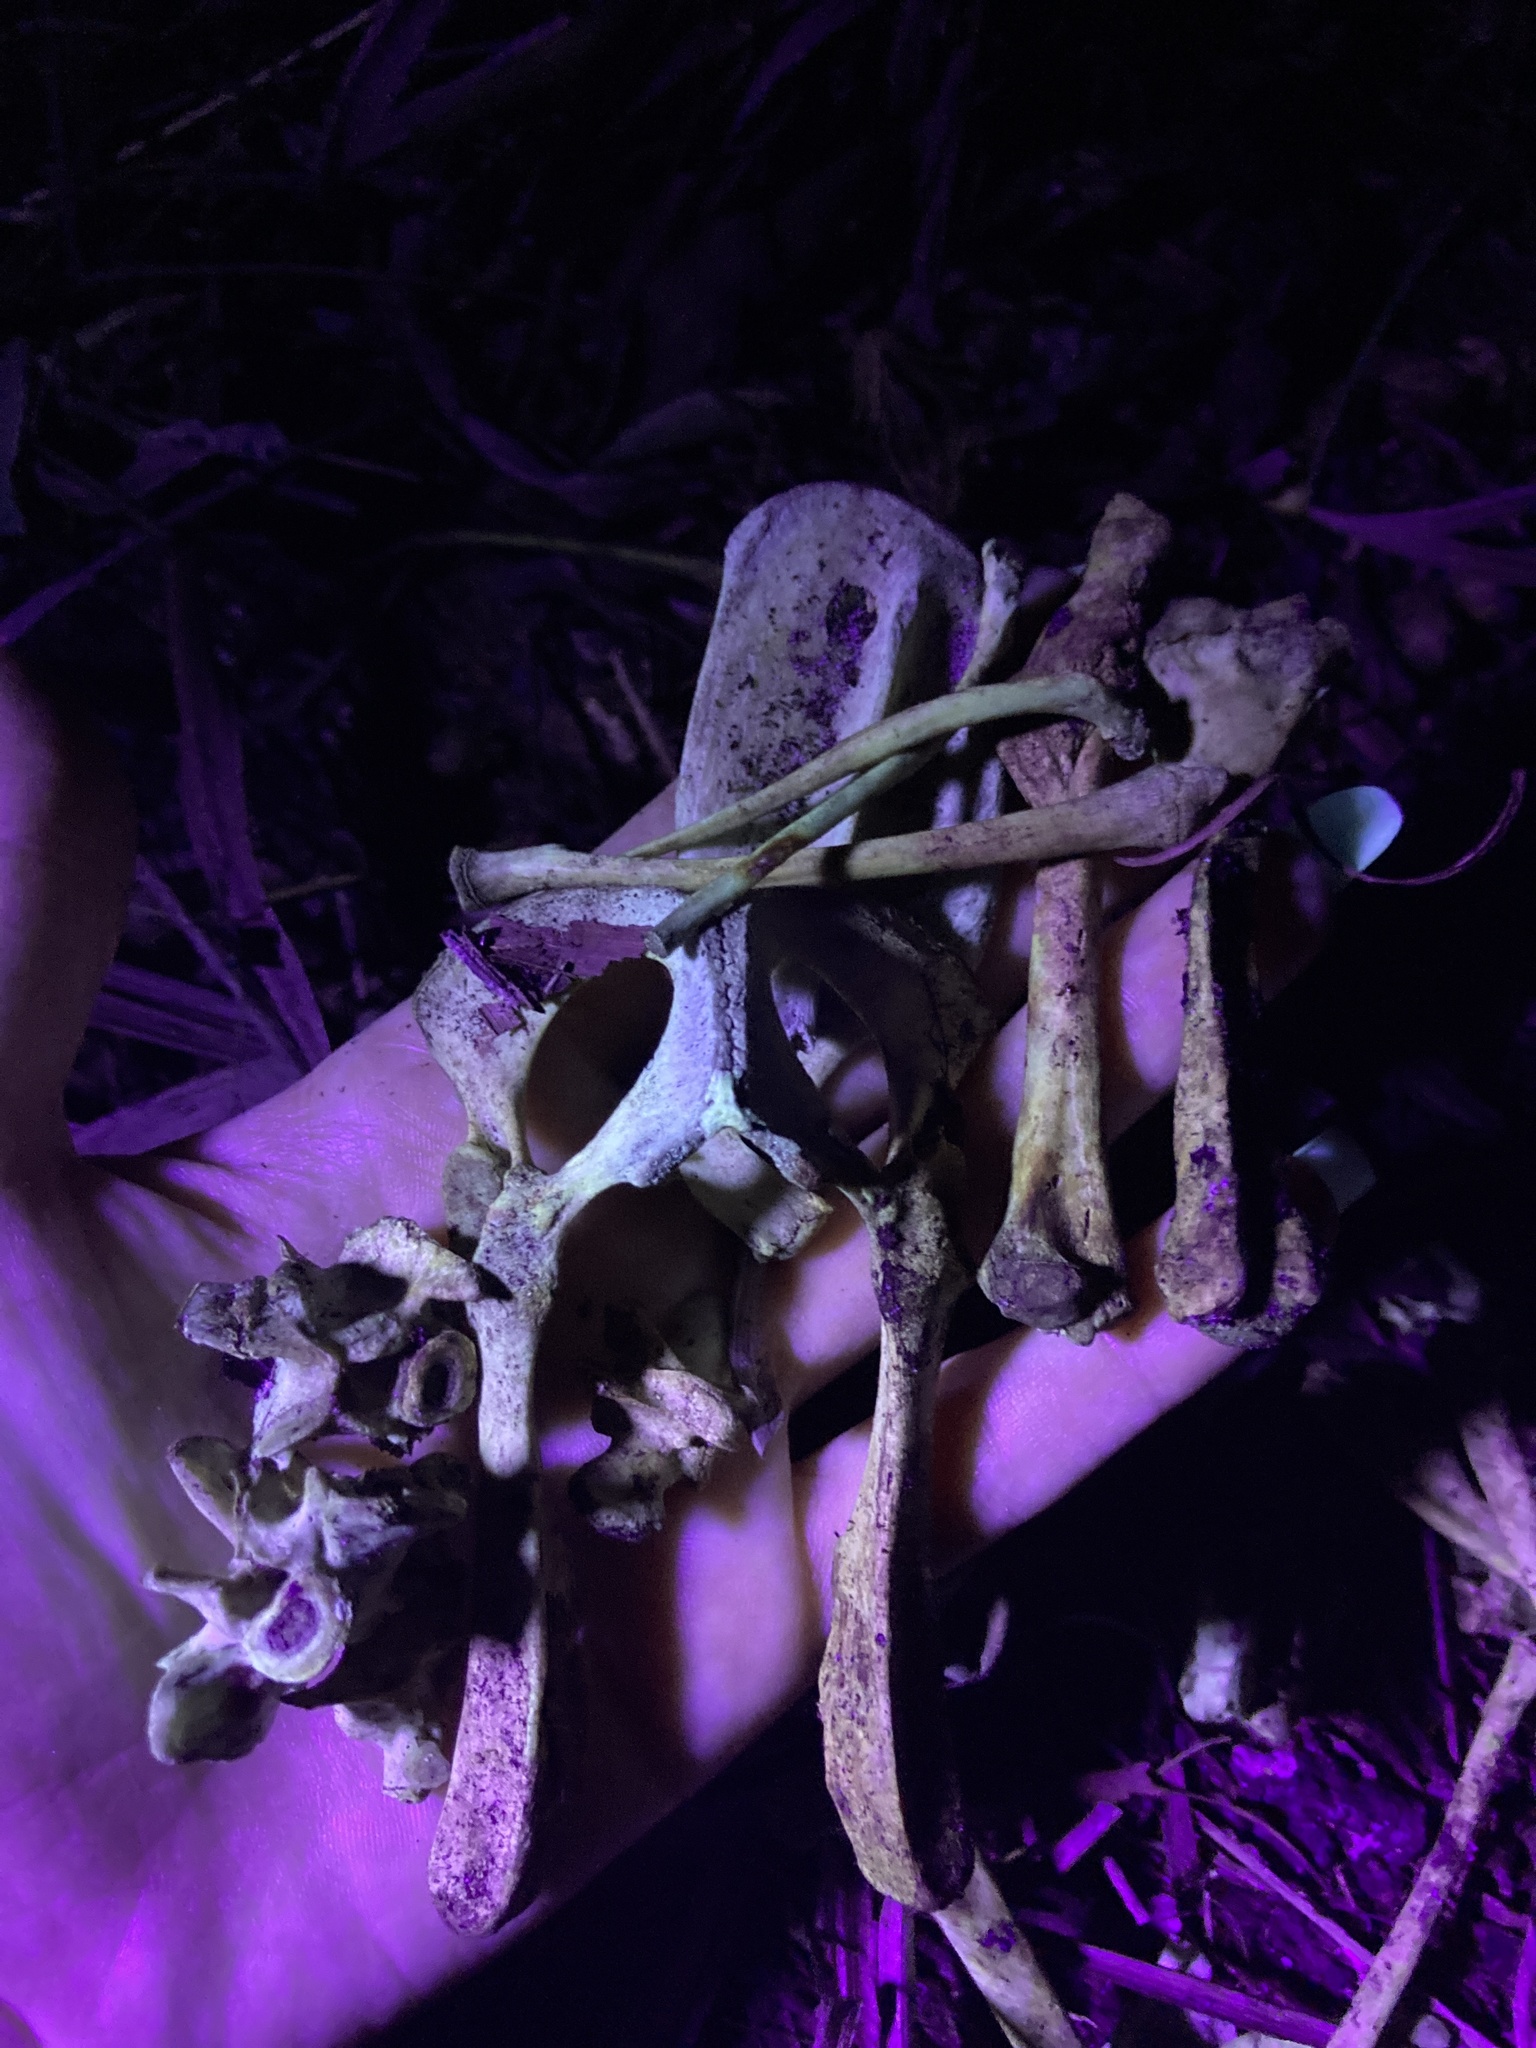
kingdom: Animalia
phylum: Chordata
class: Mammalia
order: Didelphimorphia
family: Didelphidae
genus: Didelphis
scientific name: Didelphis virginiana
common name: Virginia opossum
